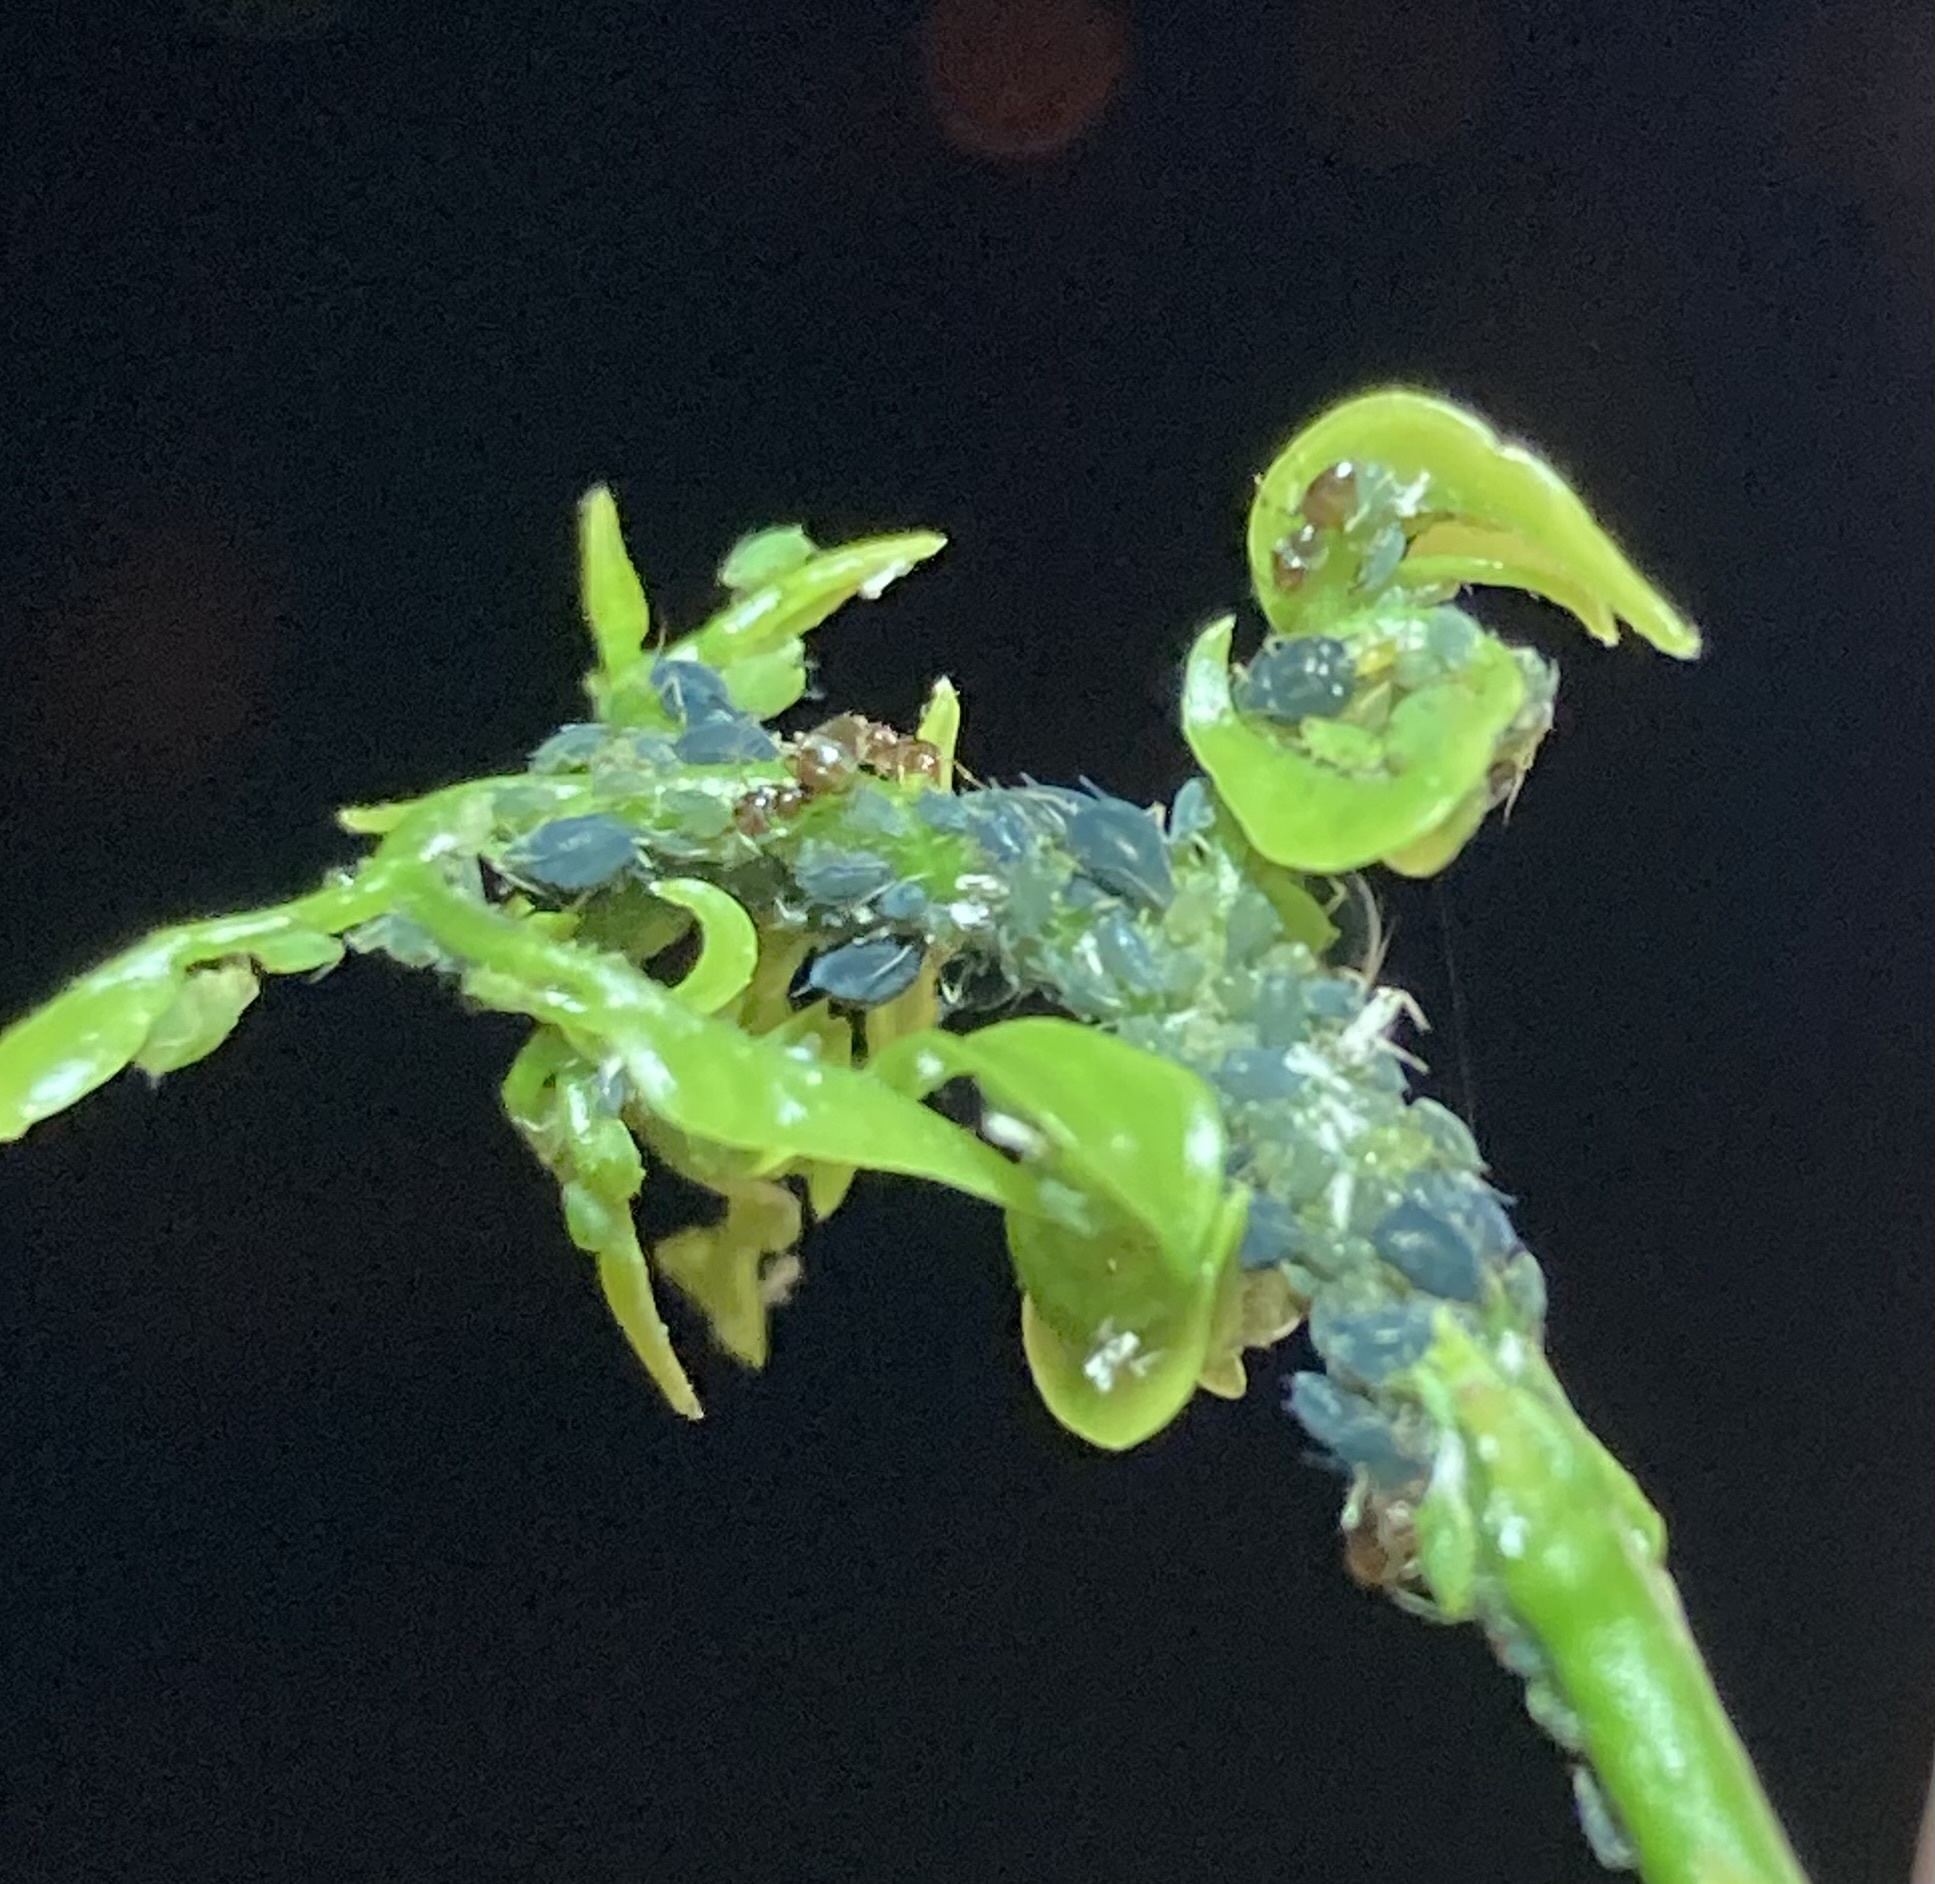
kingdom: Animalia
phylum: Arthropoda
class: Insecta
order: Hymenoptera
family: Formicidae
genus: Brachymyrmex
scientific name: Brachymyrmex obscurior
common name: Obscure rover ant
